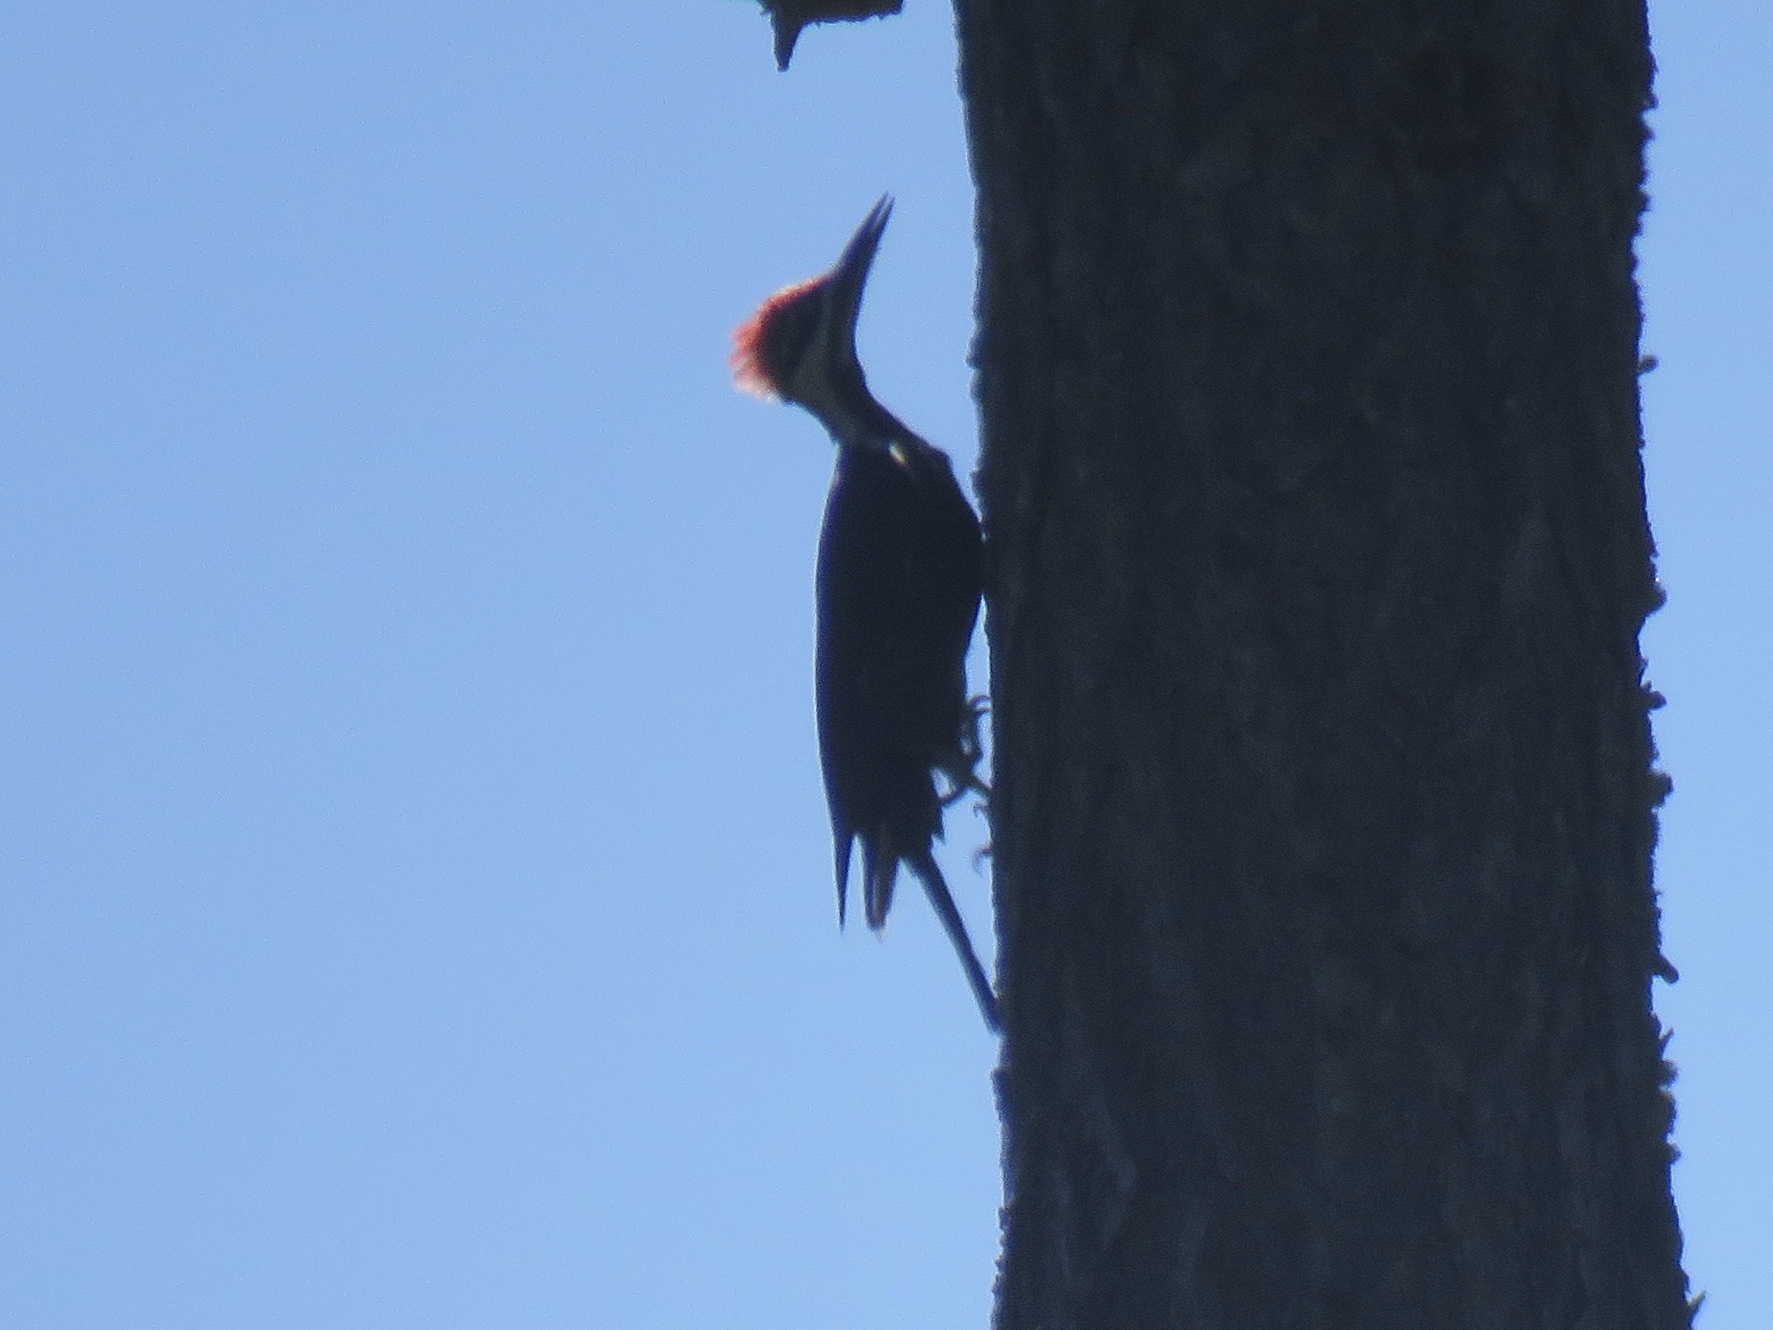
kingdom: Animalia
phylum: Chordata
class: Aves
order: Piciformes
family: Picidae
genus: Dryocopus
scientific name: Dryocopus pileatus
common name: Pileated woodpecker
